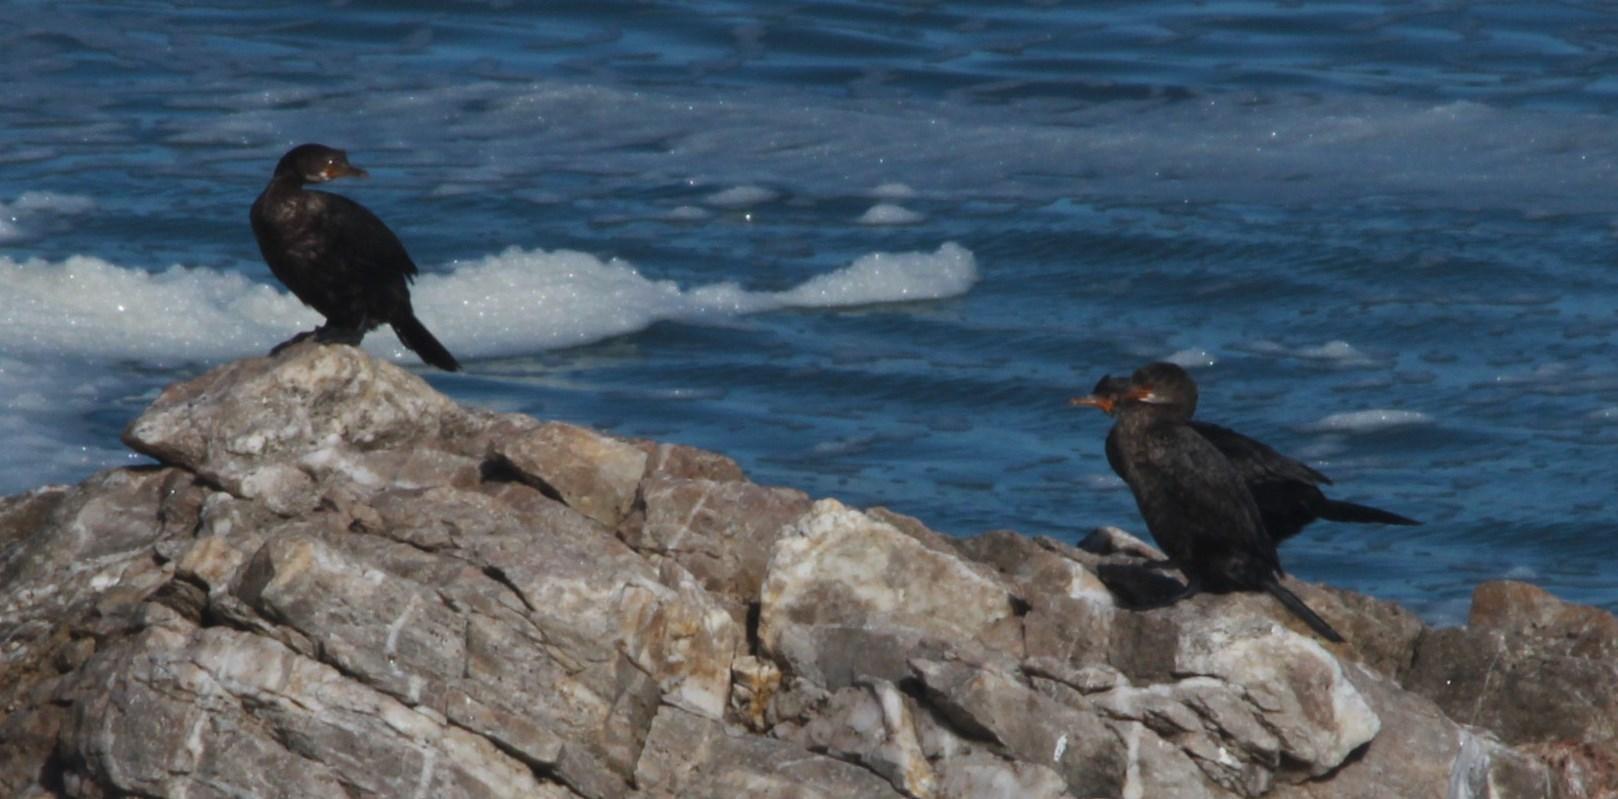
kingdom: Animalia
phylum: Chordata
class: Aves
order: Suliformes
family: Phalacrocoracidae
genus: Phalacrocorax
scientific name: Phalacrocorax capensis
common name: Cape cormorant
